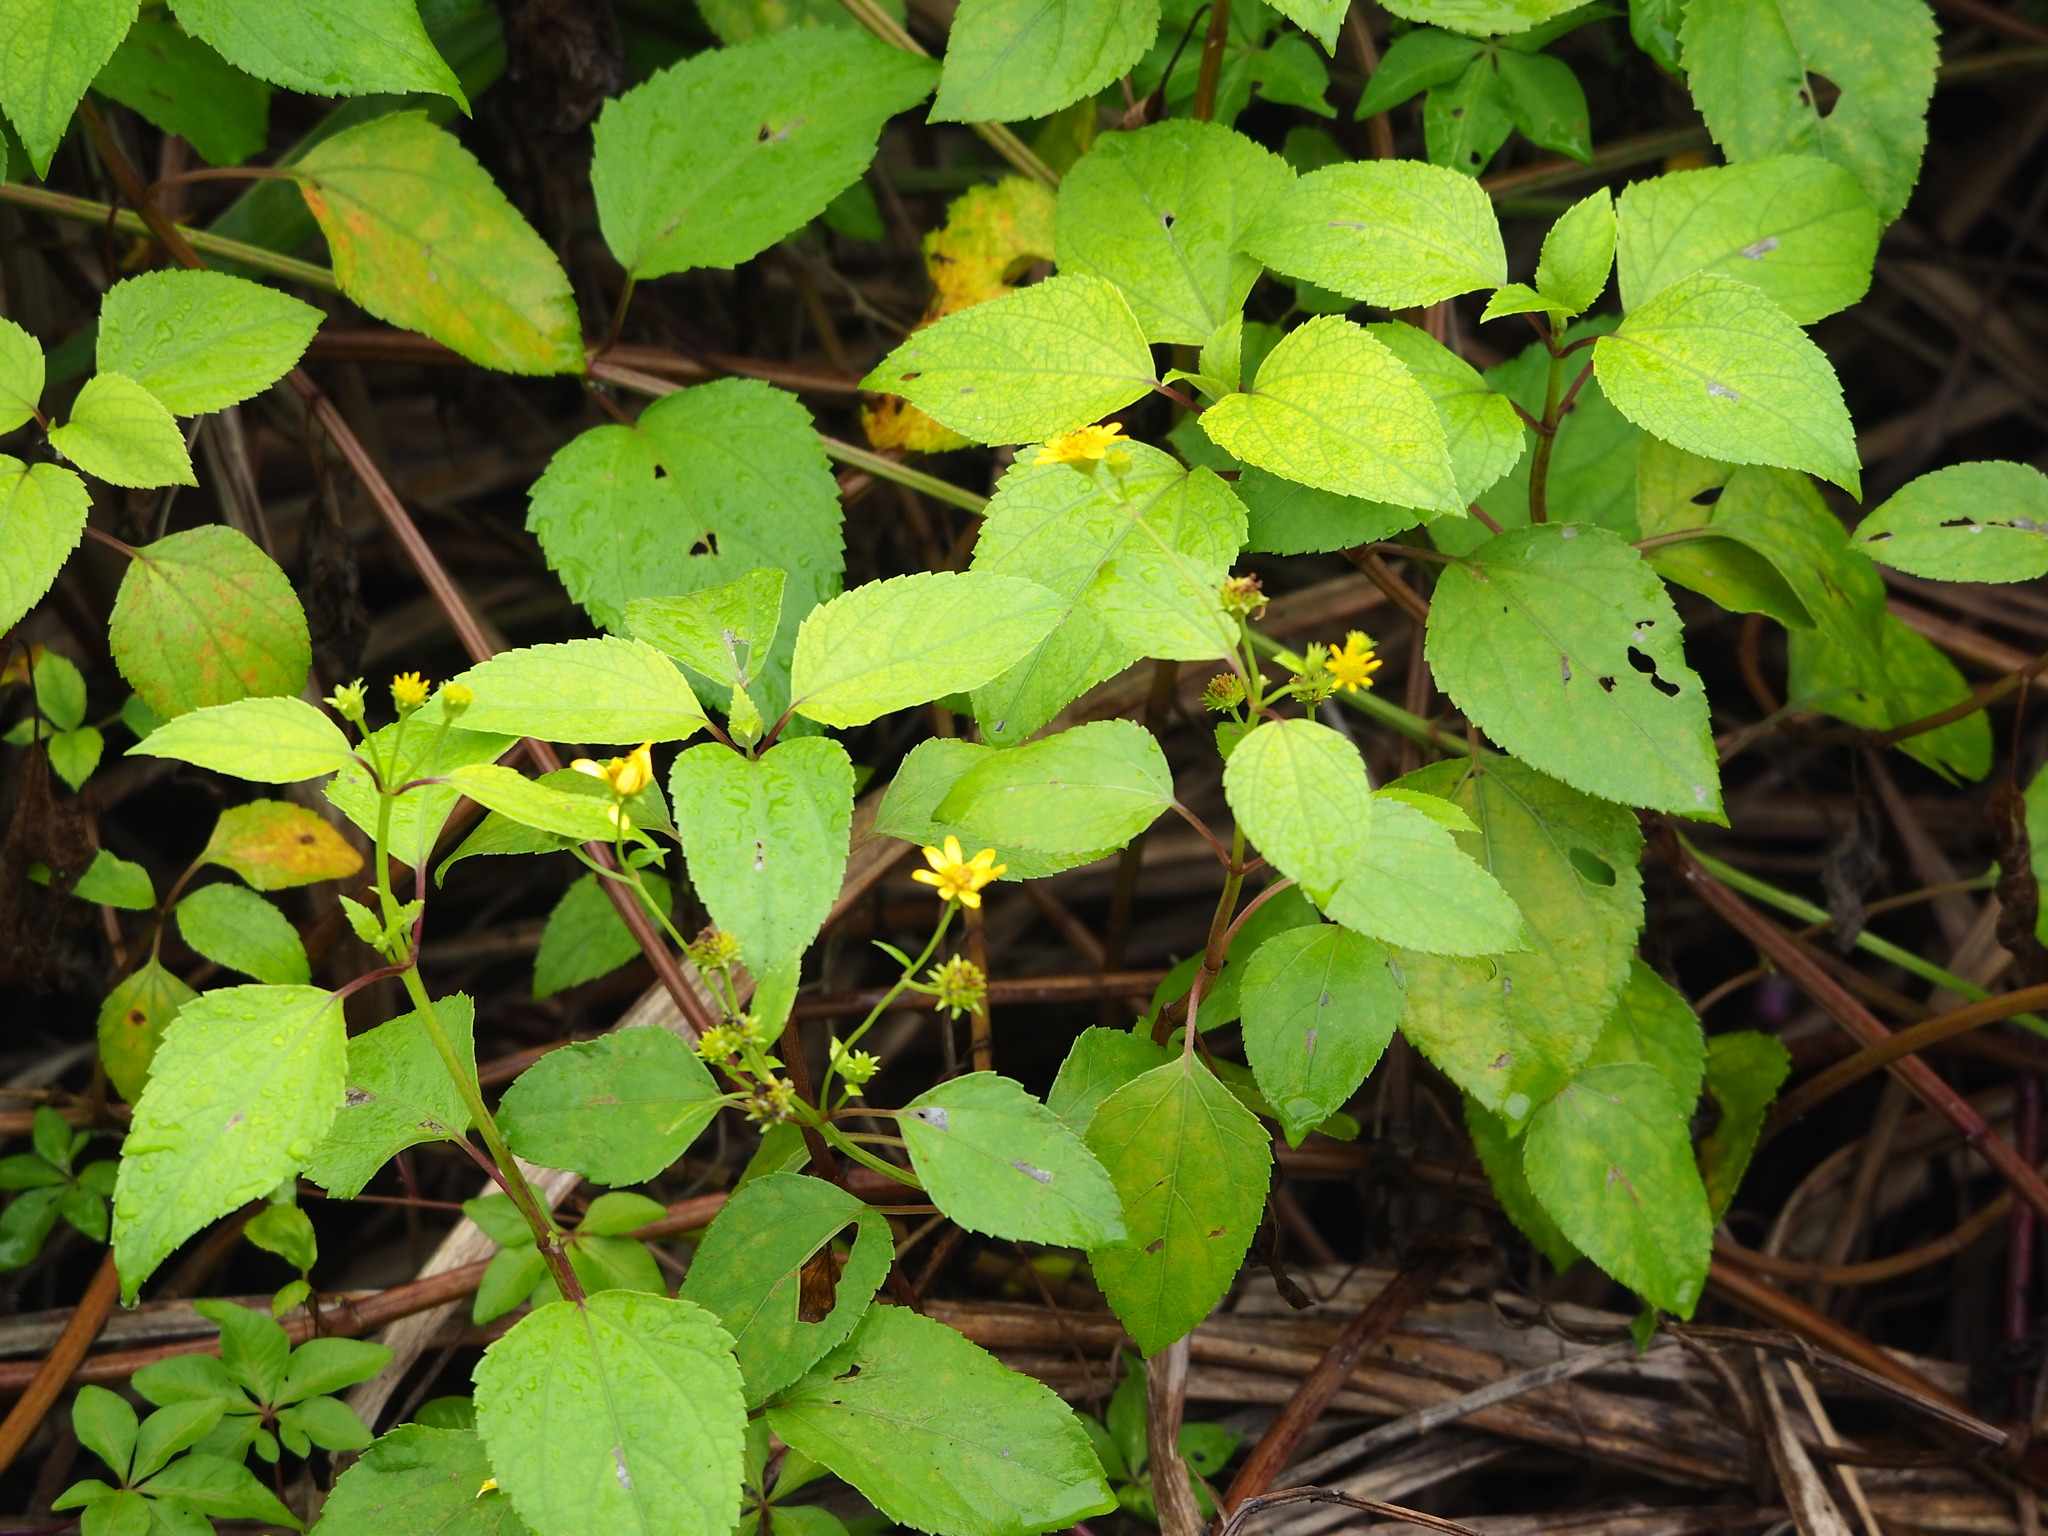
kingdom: Plantae
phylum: Tracheophyta
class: Magnoliopsida
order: Asterales
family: Asteraceae
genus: Wollastonia
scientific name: Wollastonia biflora
